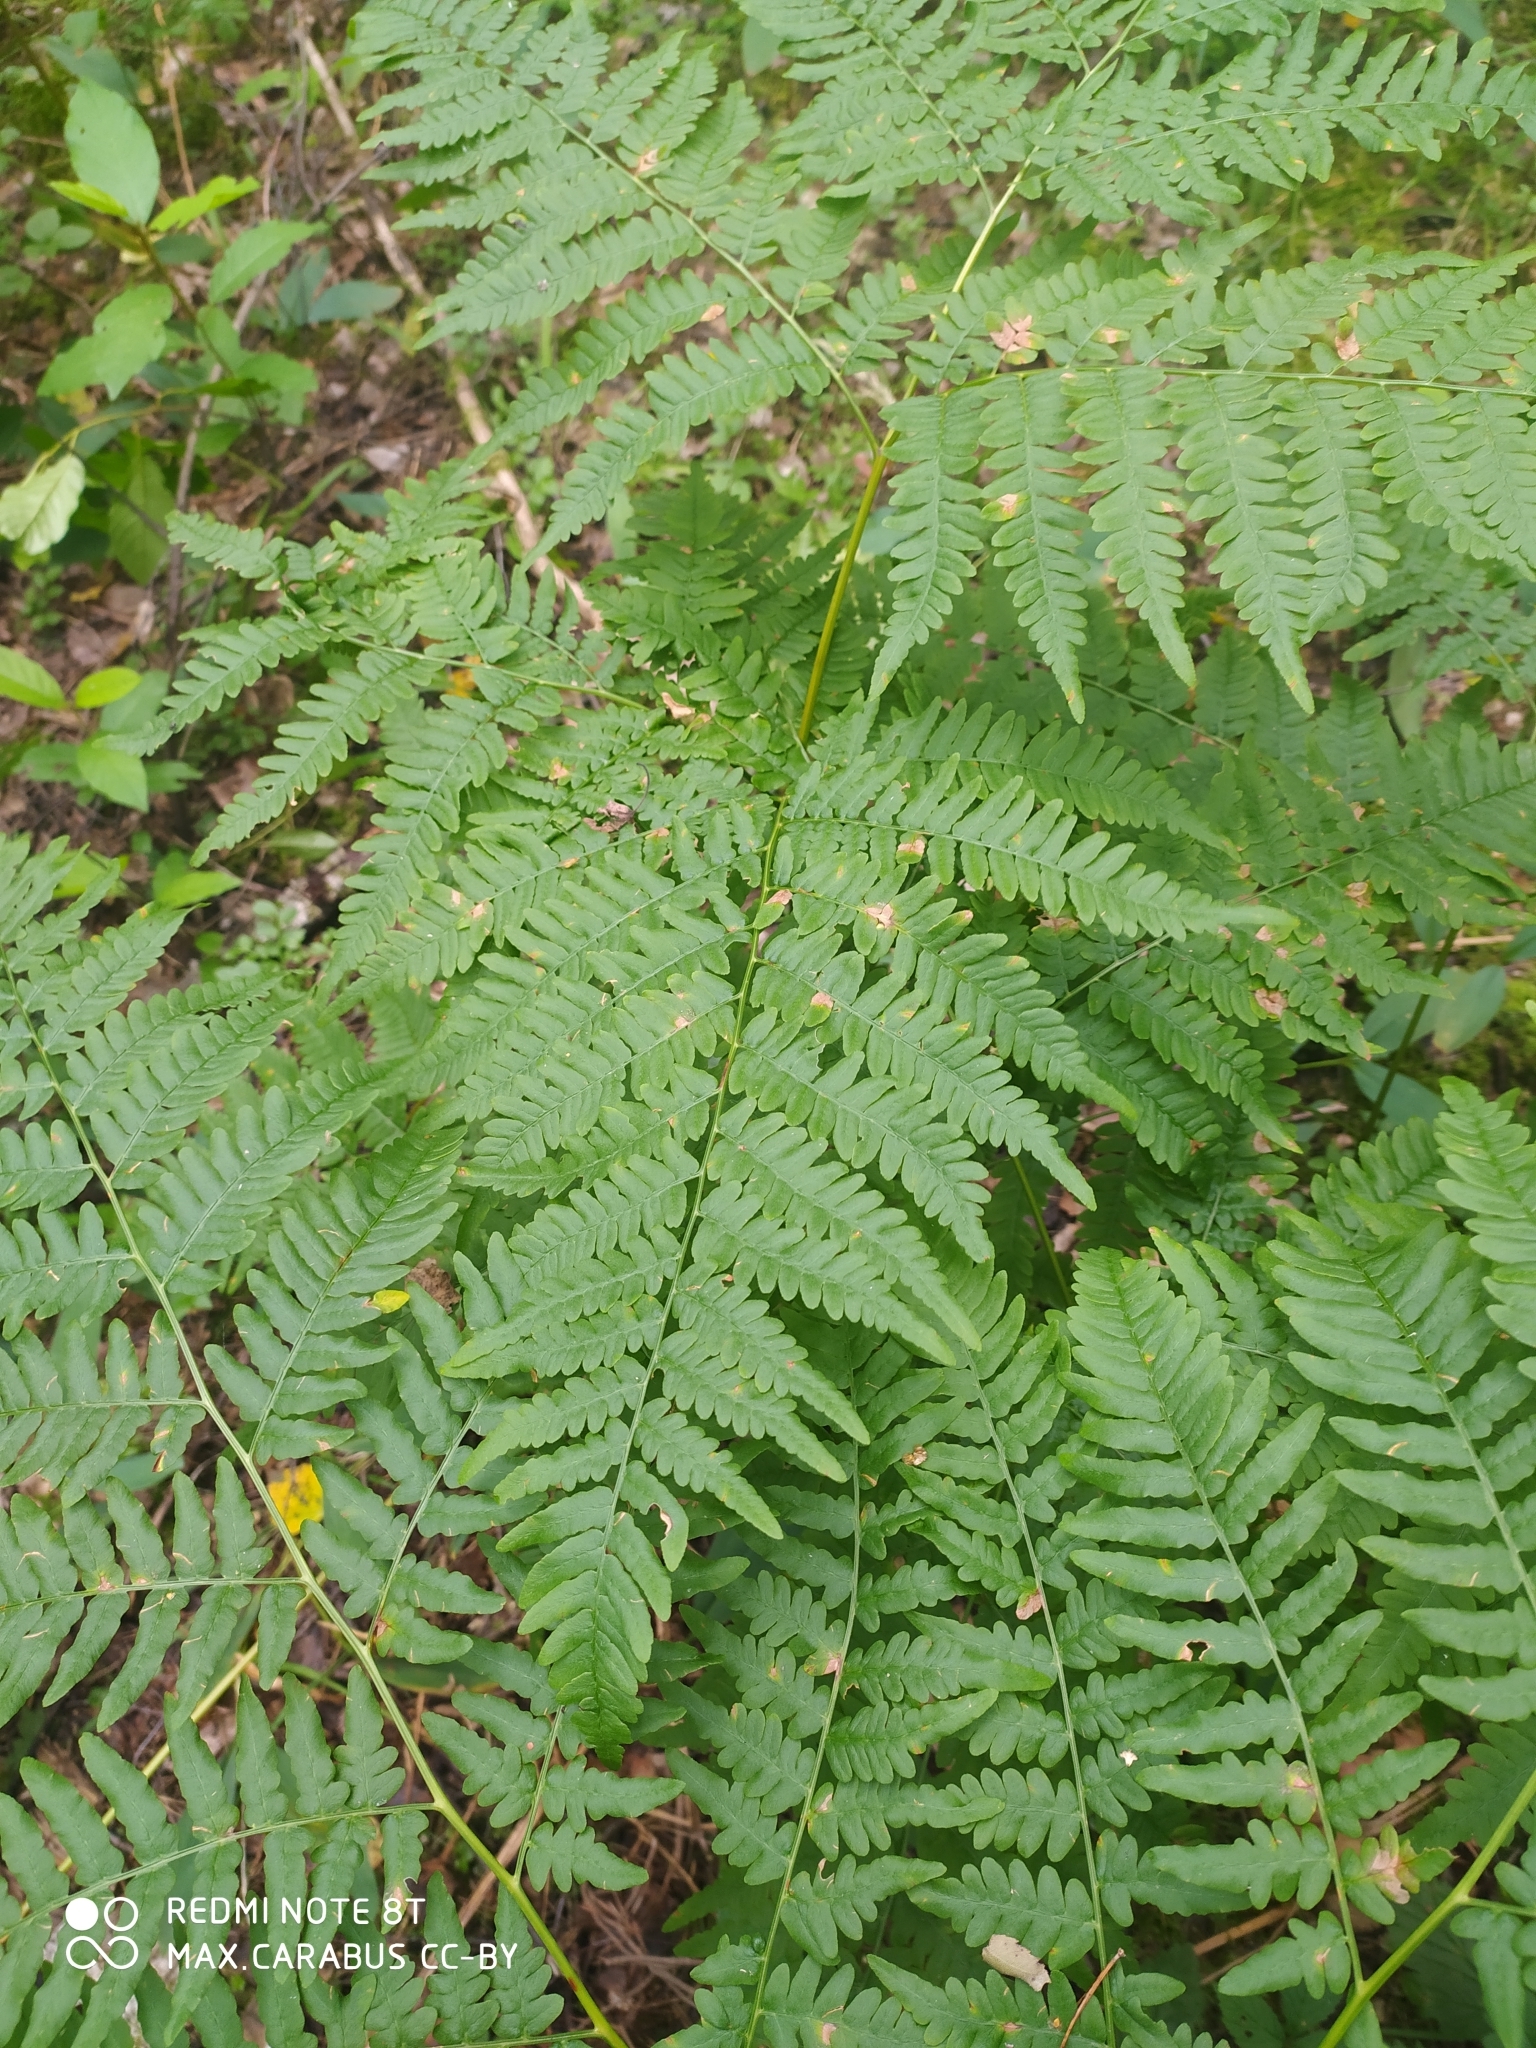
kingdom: Plantae
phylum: Tracheophyta
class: Polypodiopsida
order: Polypodiales
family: Dennstaedtiaceae
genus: Pteridium
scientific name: Pteridium aquilinum
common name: Bracken
